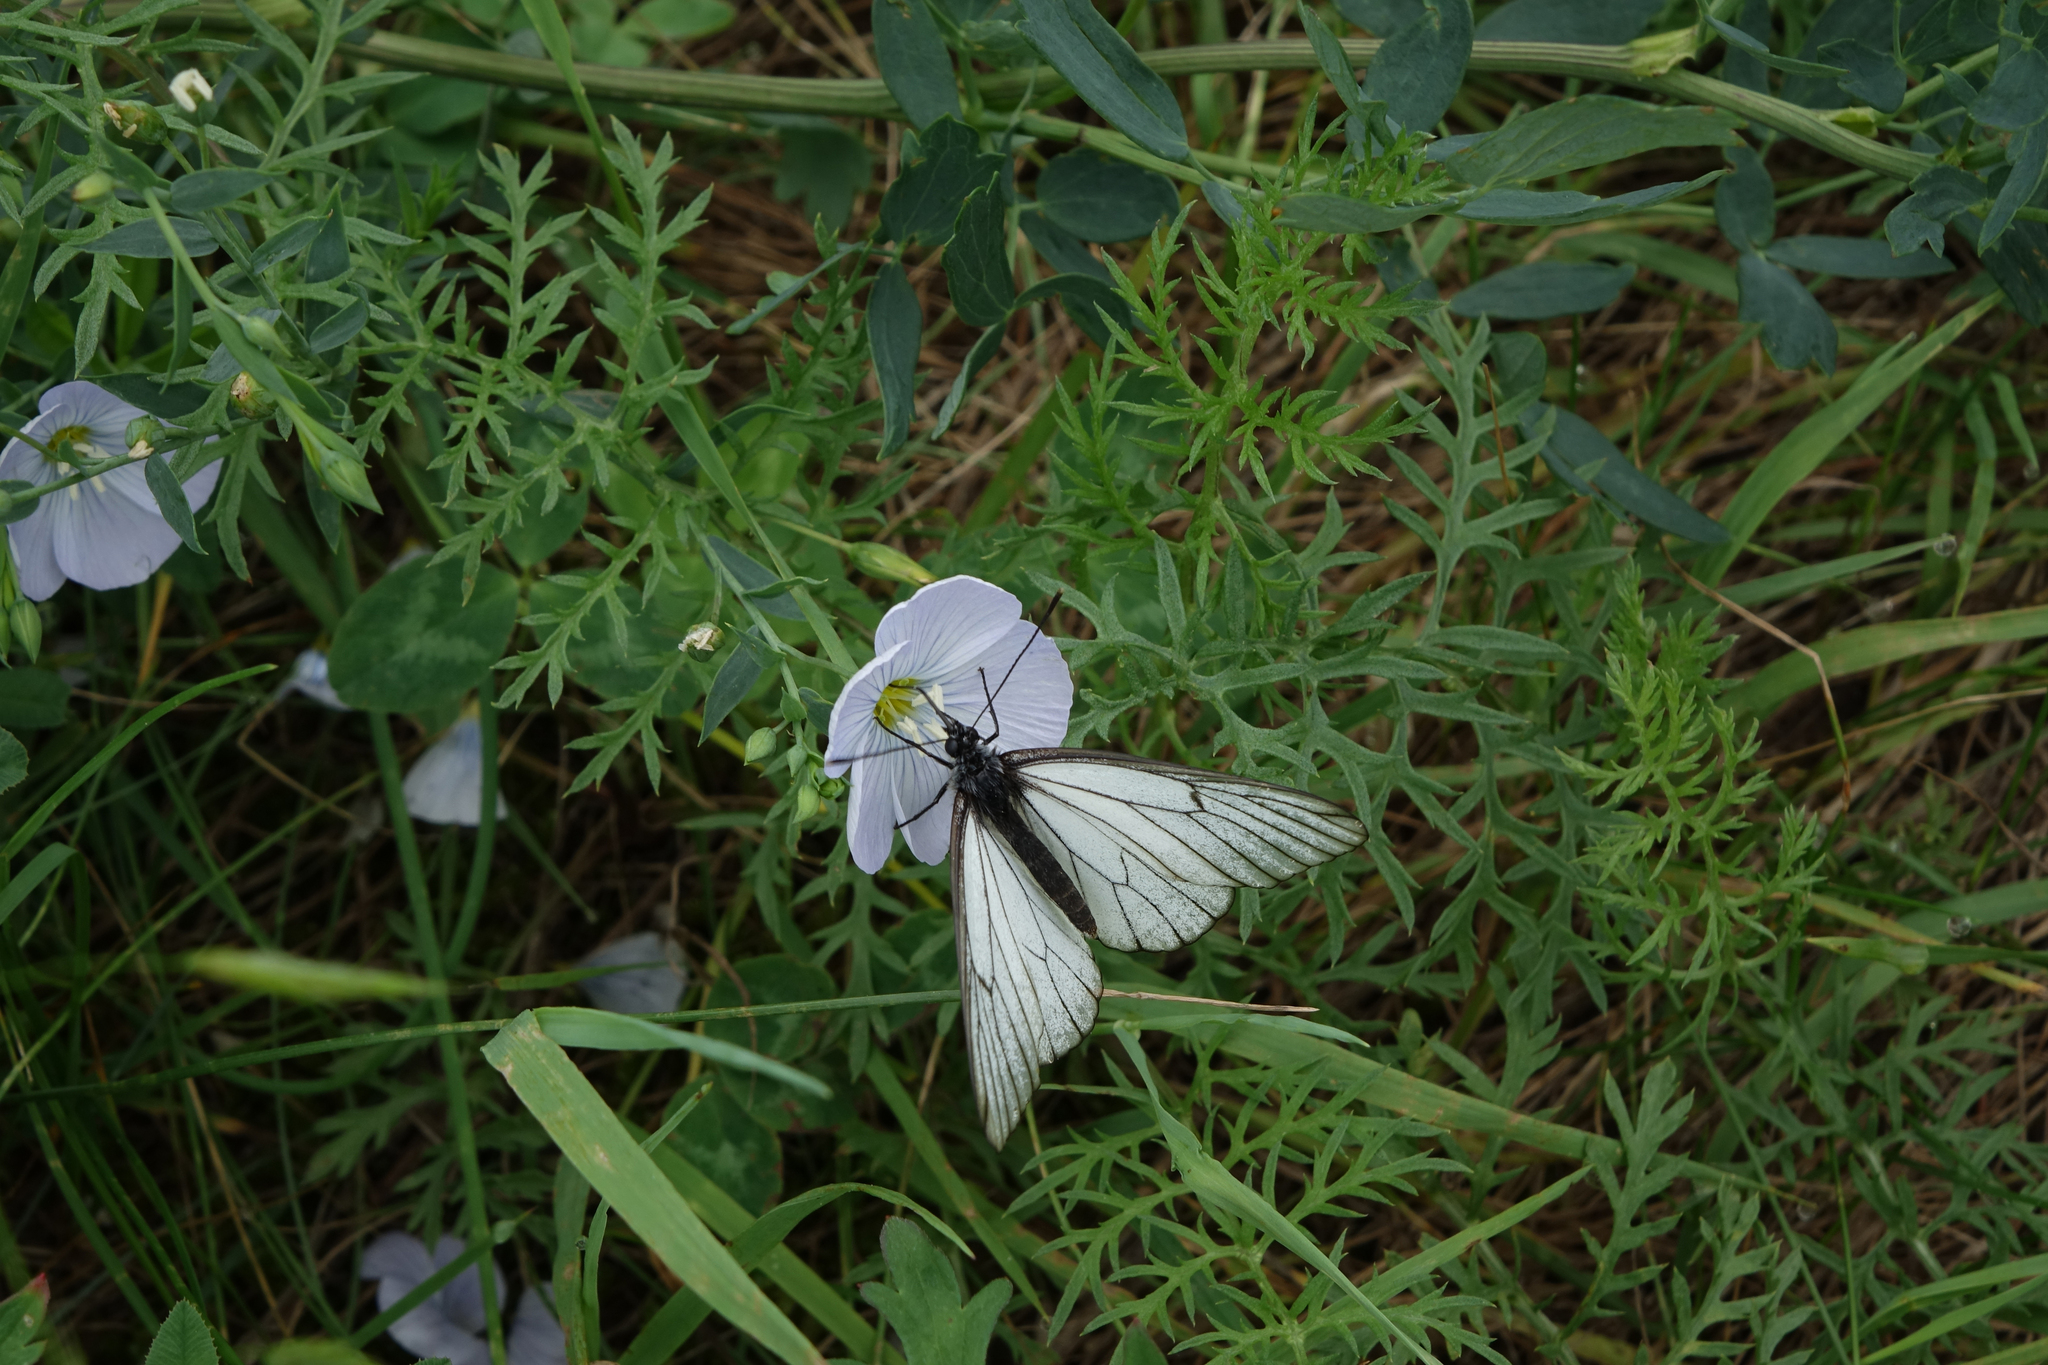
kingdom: Plantae
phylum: Tracheophyta
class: Magnoliopsida
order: Asterales
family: Asteraceae
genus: Artemisia
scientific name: Artemisia laciniata
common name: Siberian wormwood
